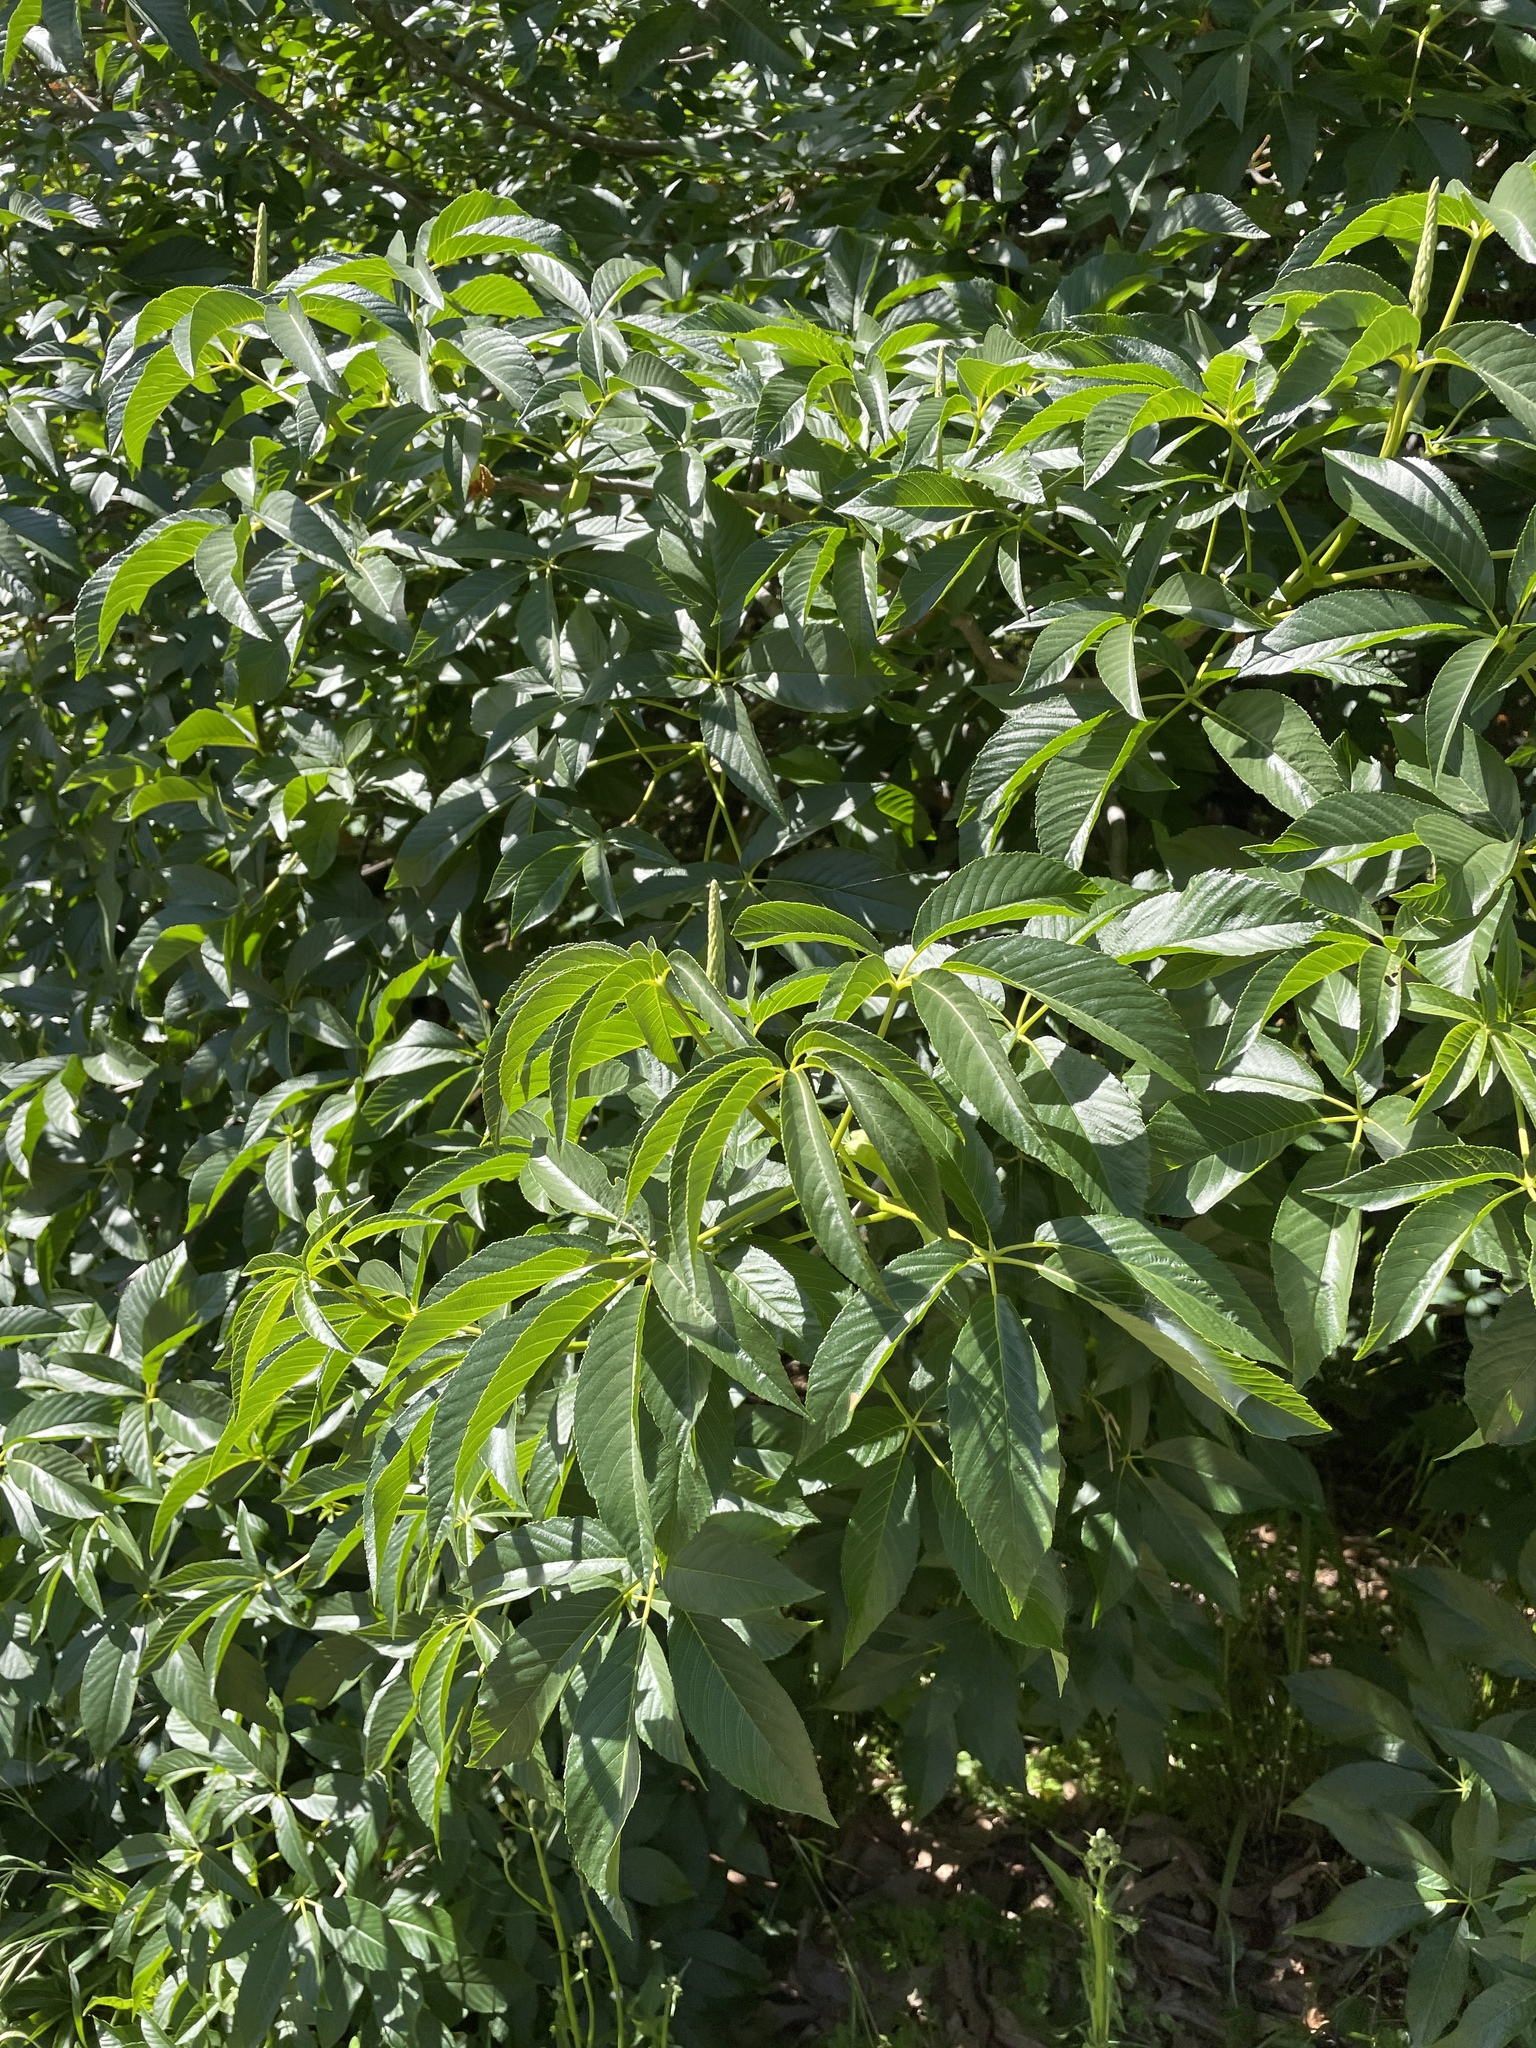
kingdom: Plantae
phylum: Tracheophyta
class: Magnoliopsida
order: Sapindales
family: Sapindaceae
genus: Aesculus
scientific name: Aesculus californica
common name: California buckeye
